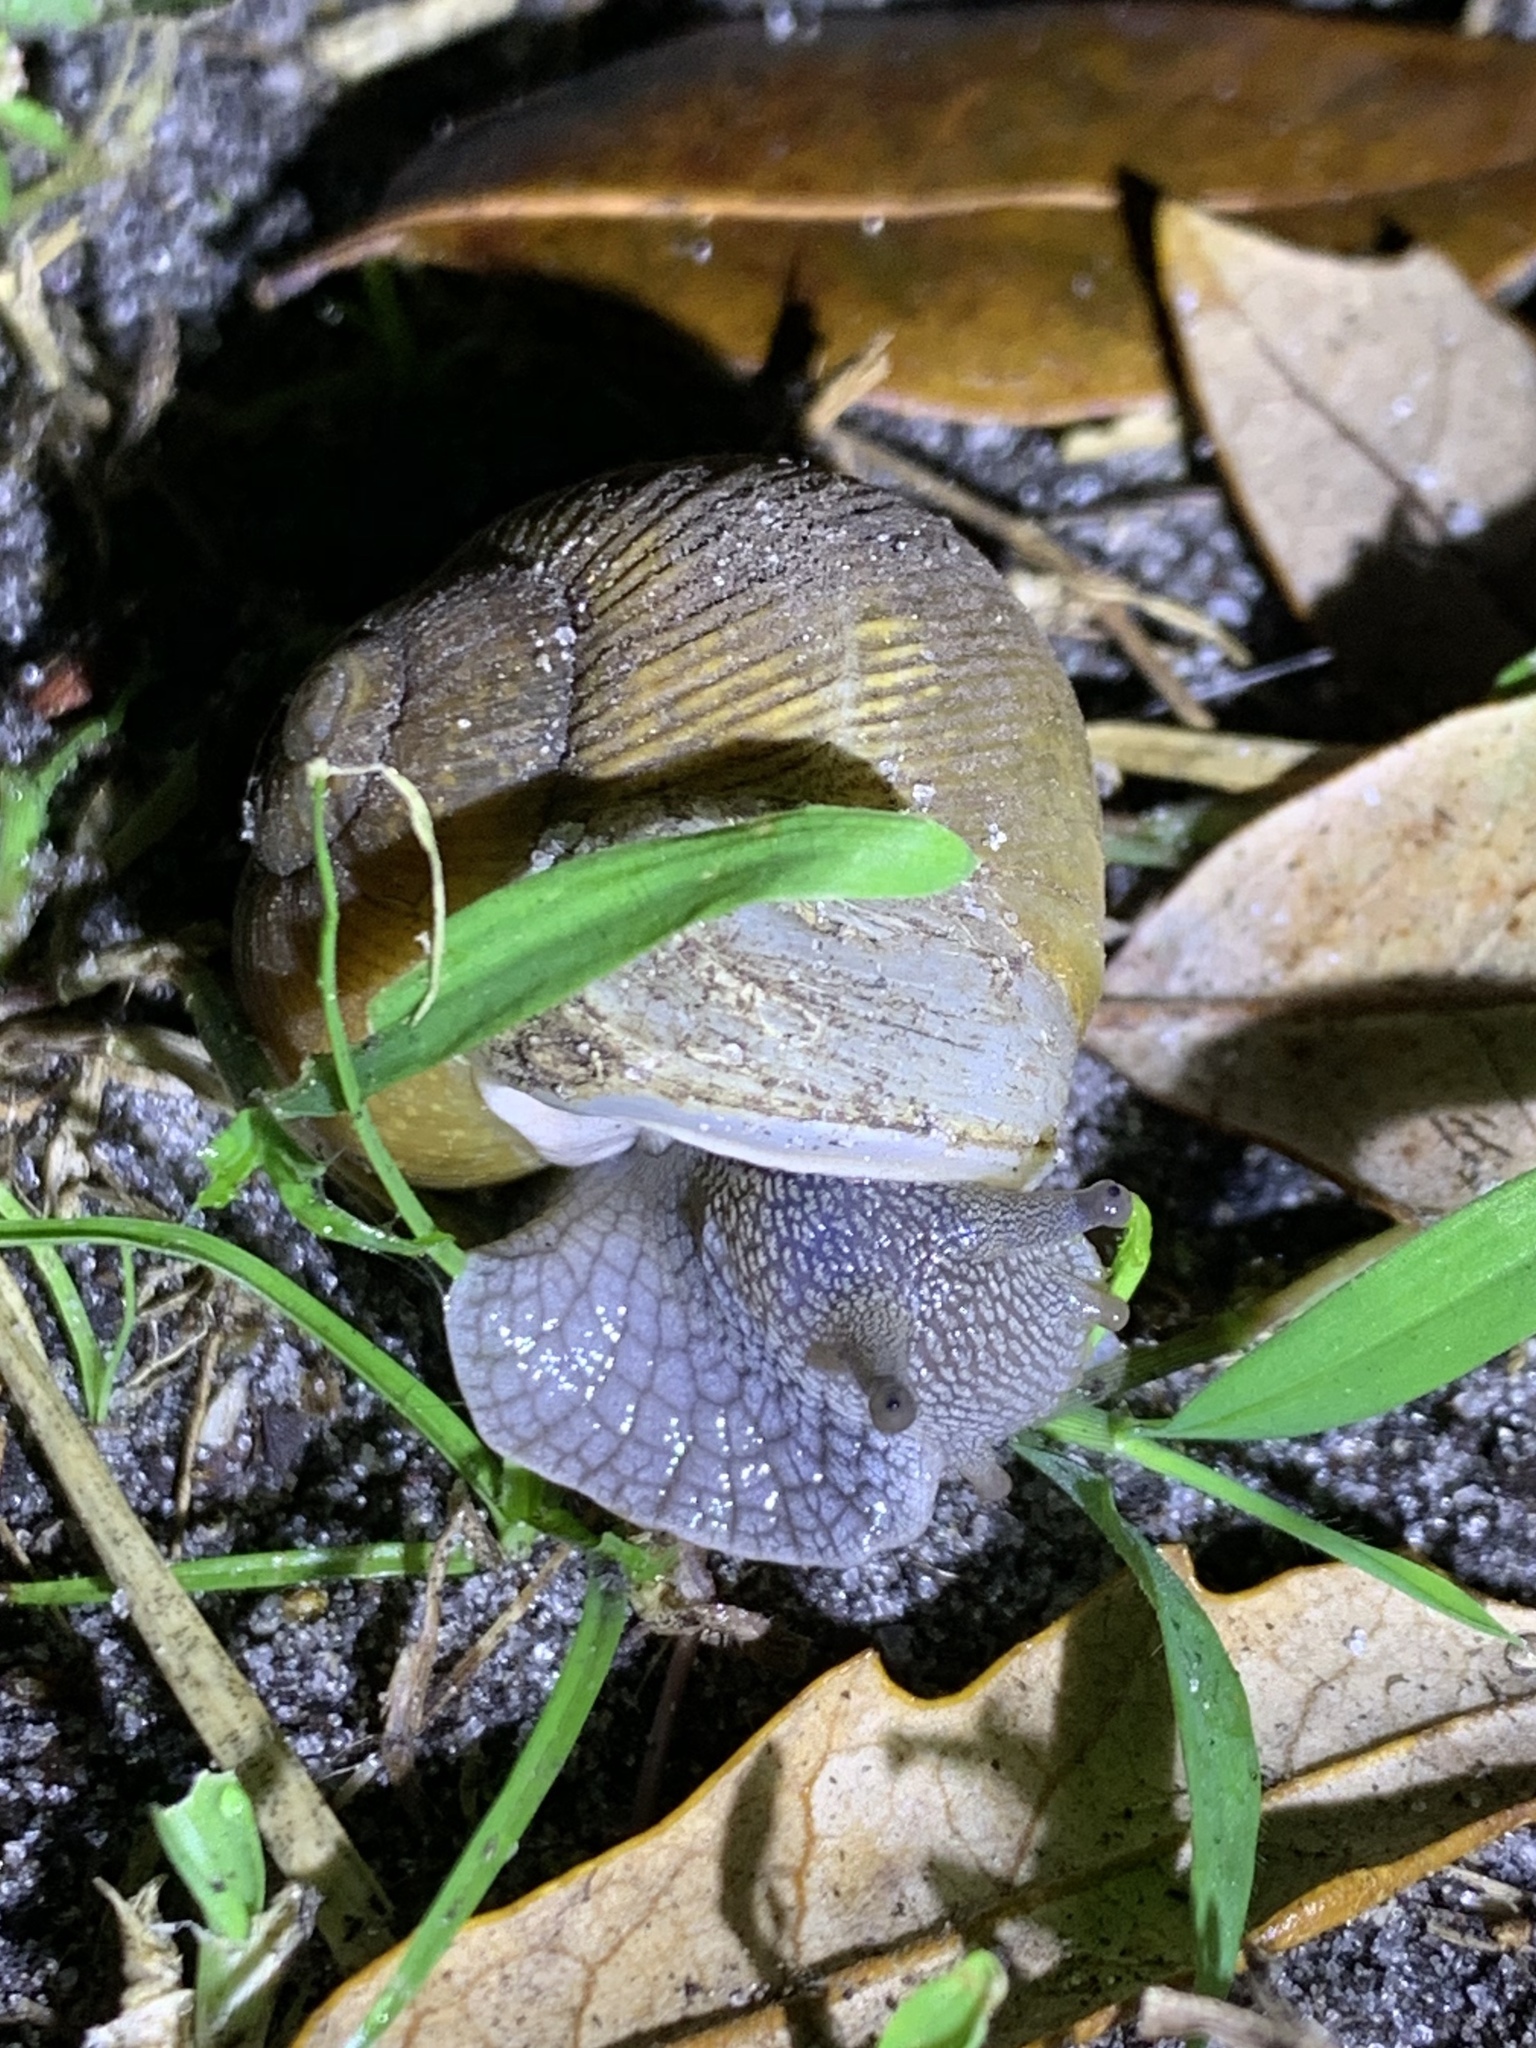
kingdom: Animalia
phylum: Mollusca
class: Gastropoda
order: Stylommatophora
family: Zachrysiidae
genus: Zachrysia
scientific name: Zachrysia provisoria
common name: Garden zachrysia
